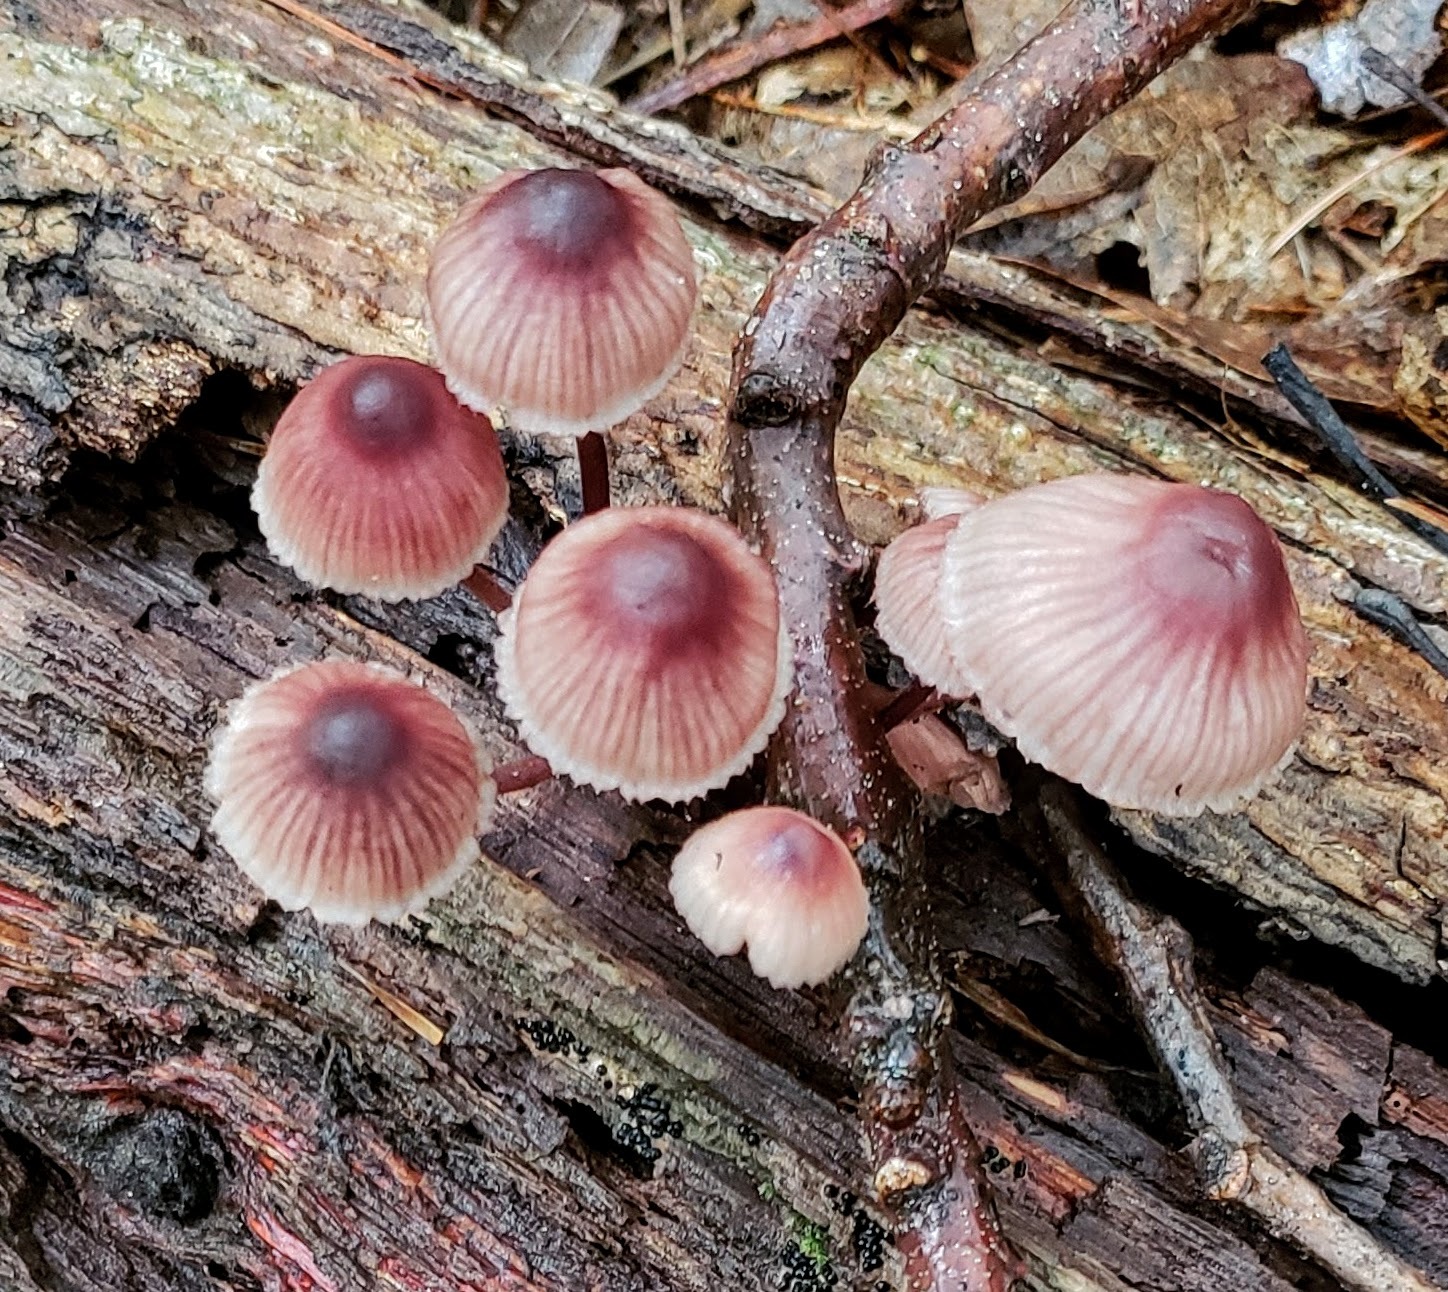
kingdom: Fungi
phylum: Basidiomycota
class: Agaricomycetes
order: Agaricales
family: Mycenaceae
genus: Mycena
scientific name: Mycena haematopus
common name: Burgundydrop bonnet
